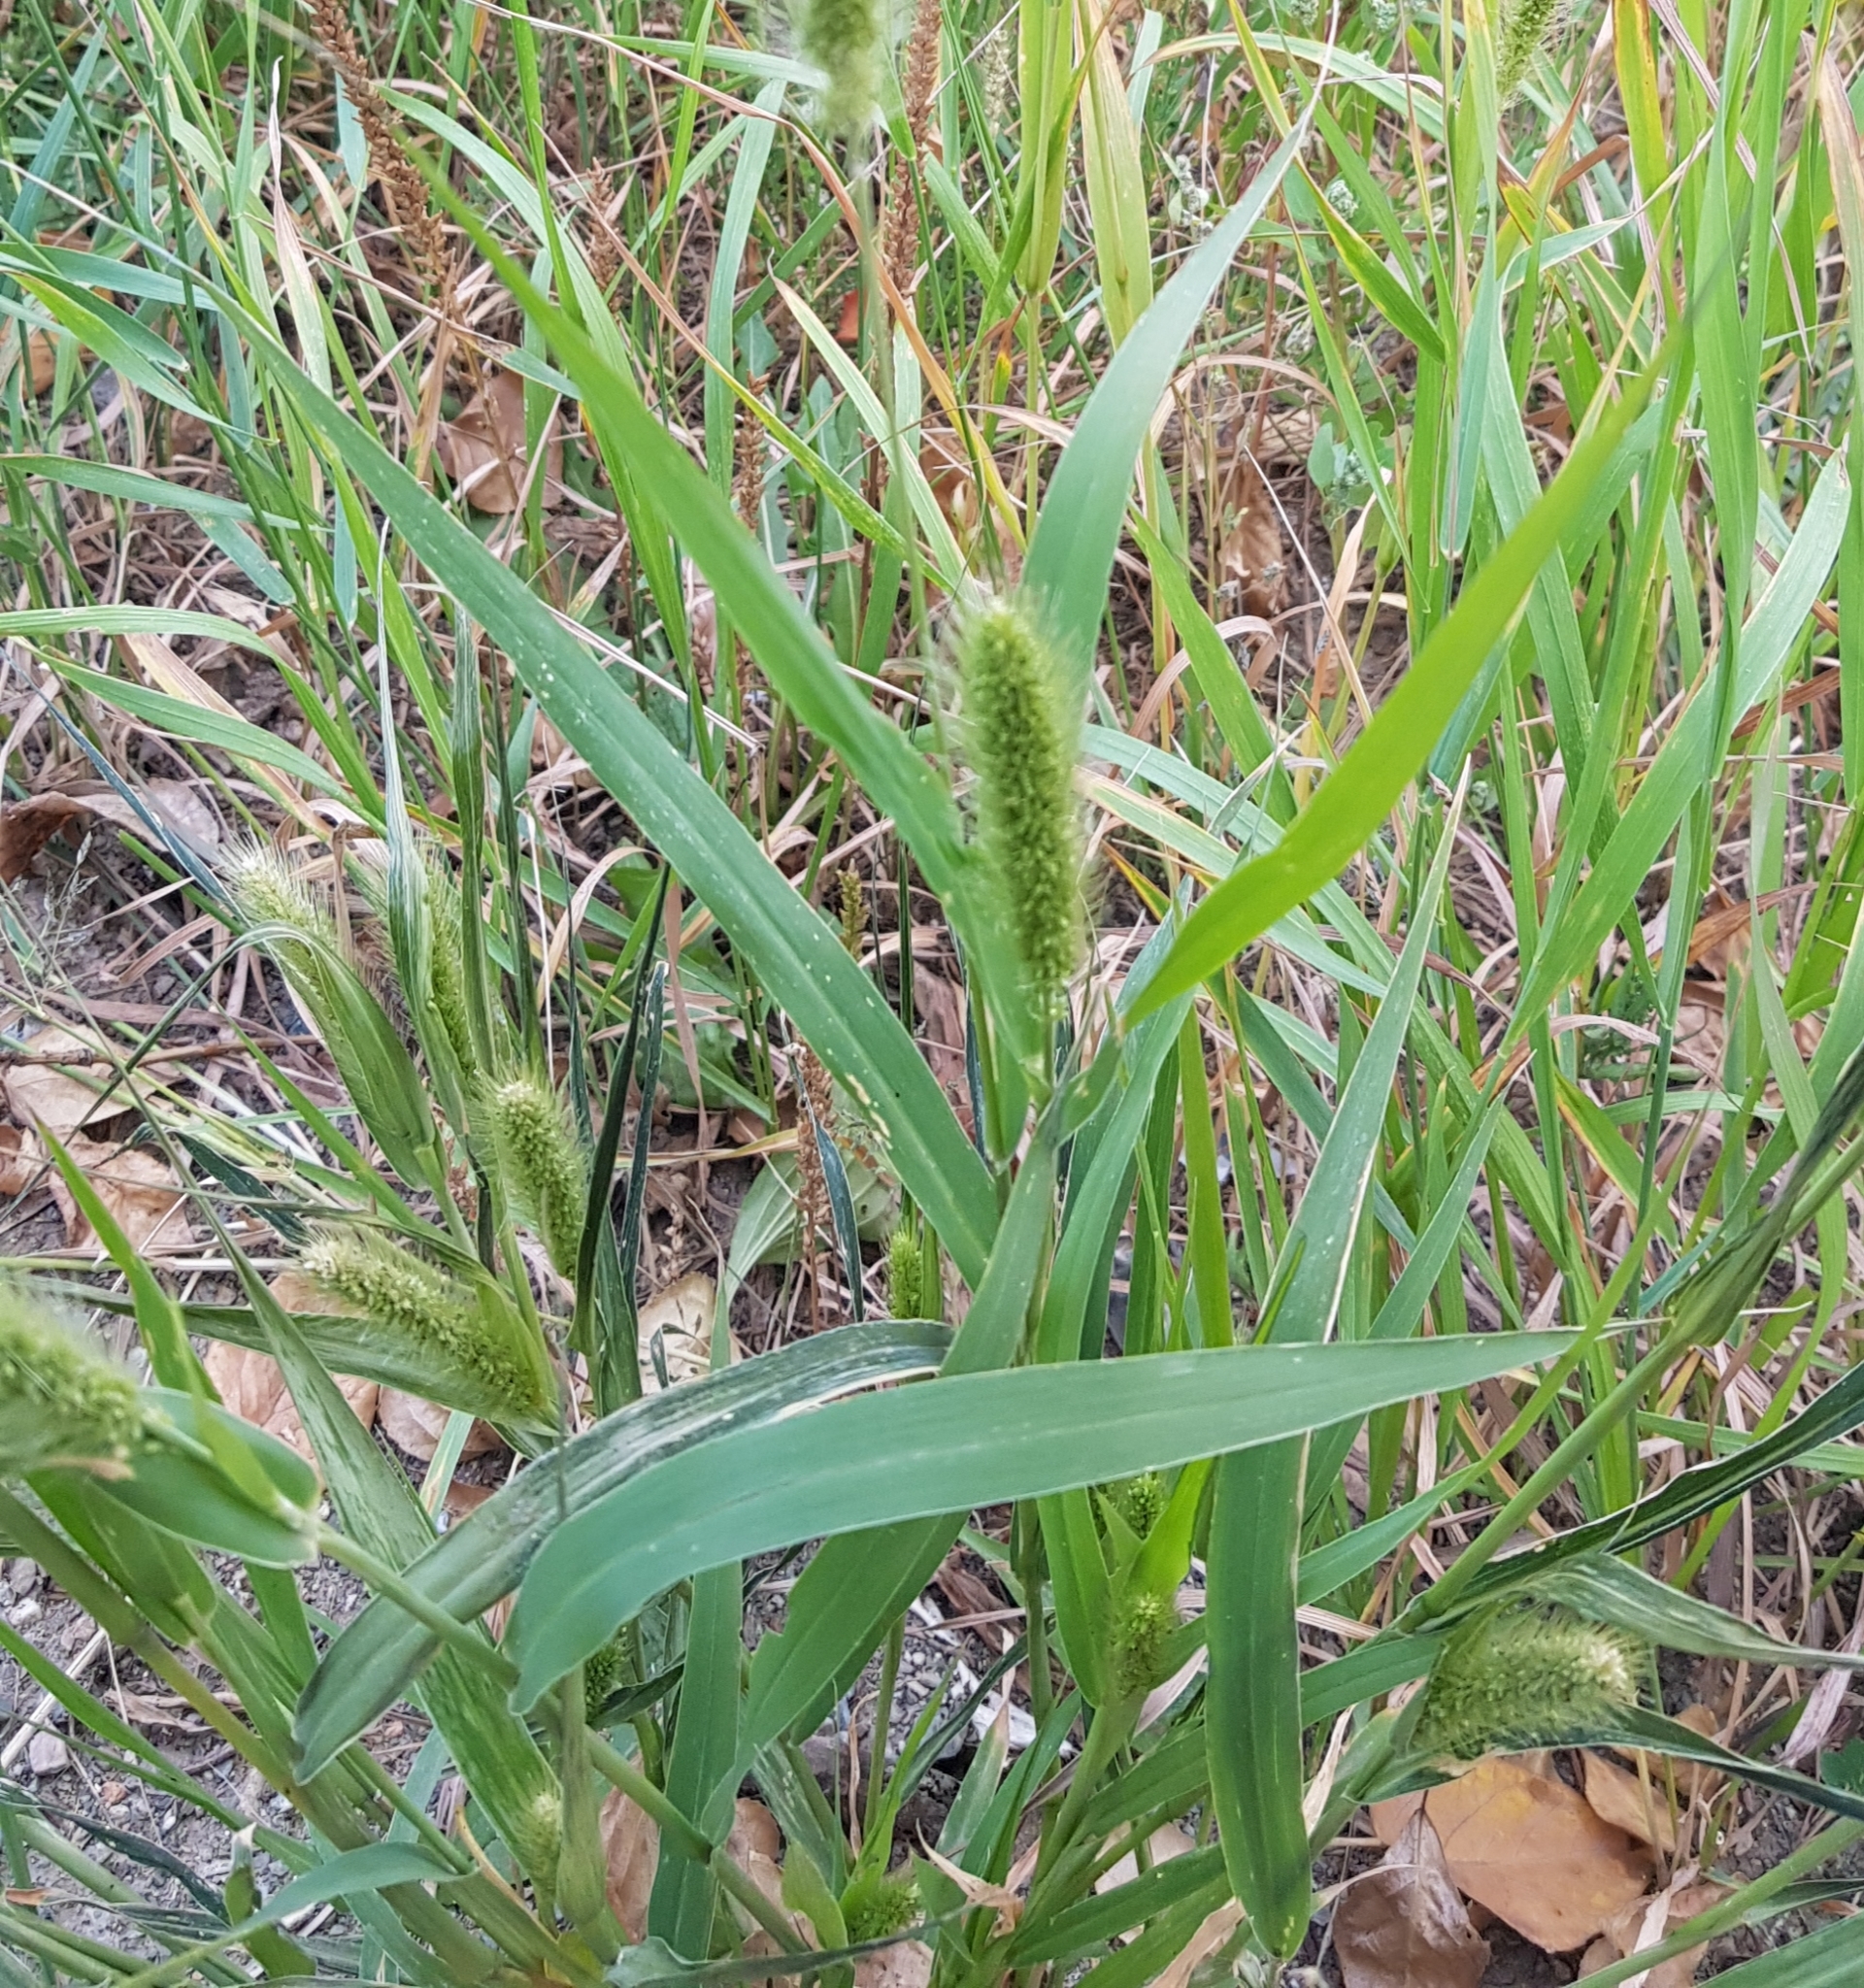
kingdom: Plantae
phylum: Tracheophyta
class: Liliopsida
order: Poales
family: Poaceae
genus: Setaria
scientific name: Setaria viridis
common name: Green bristlegrass
